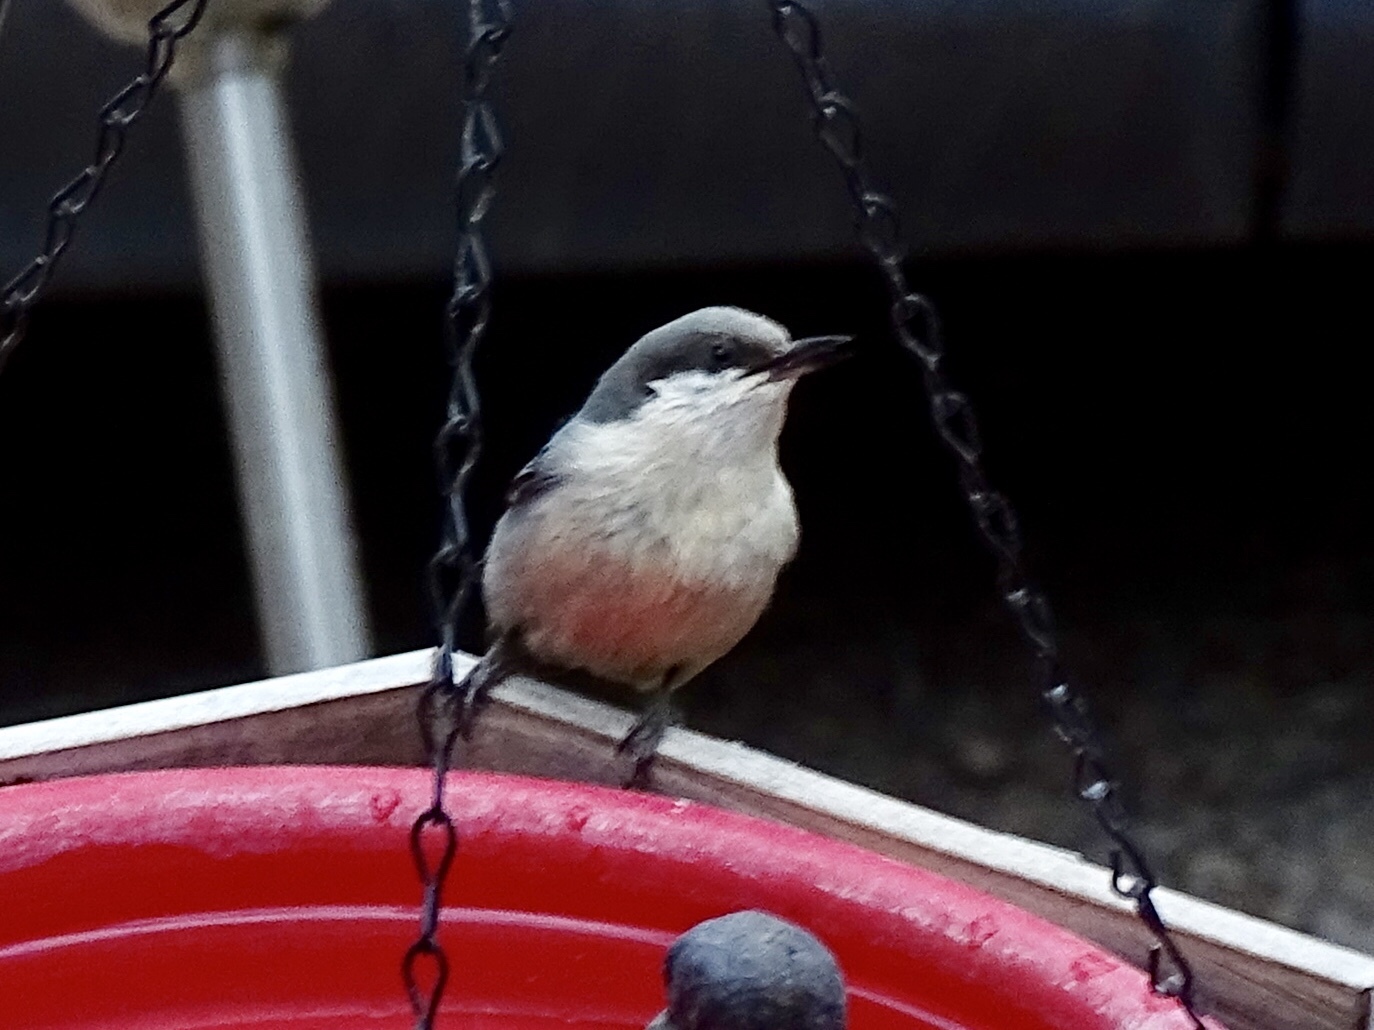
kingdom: Animalia
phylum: Chordata
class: Aves
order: Passeriformes
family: Sittidae
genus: Sitta
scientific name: Sitta pygmaea
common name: Pygmy nuthatch
